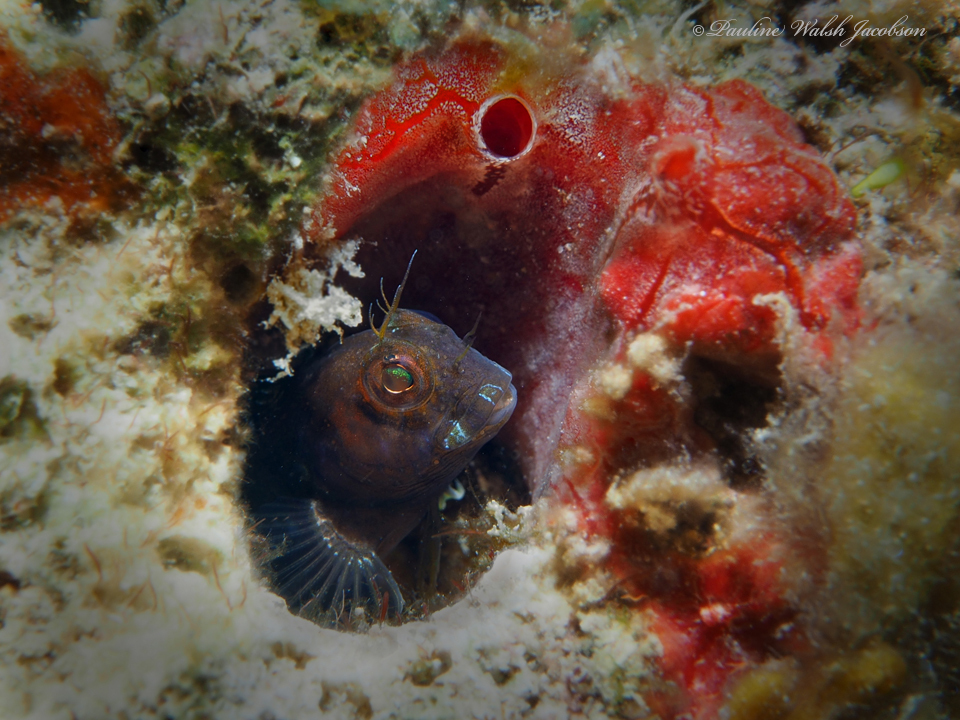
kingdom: Animalia
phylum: Chordata
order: Perciformes
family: Blenniidae
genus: Parablennius
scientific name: Parablennius marmoreus
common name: Seaweed blenny
